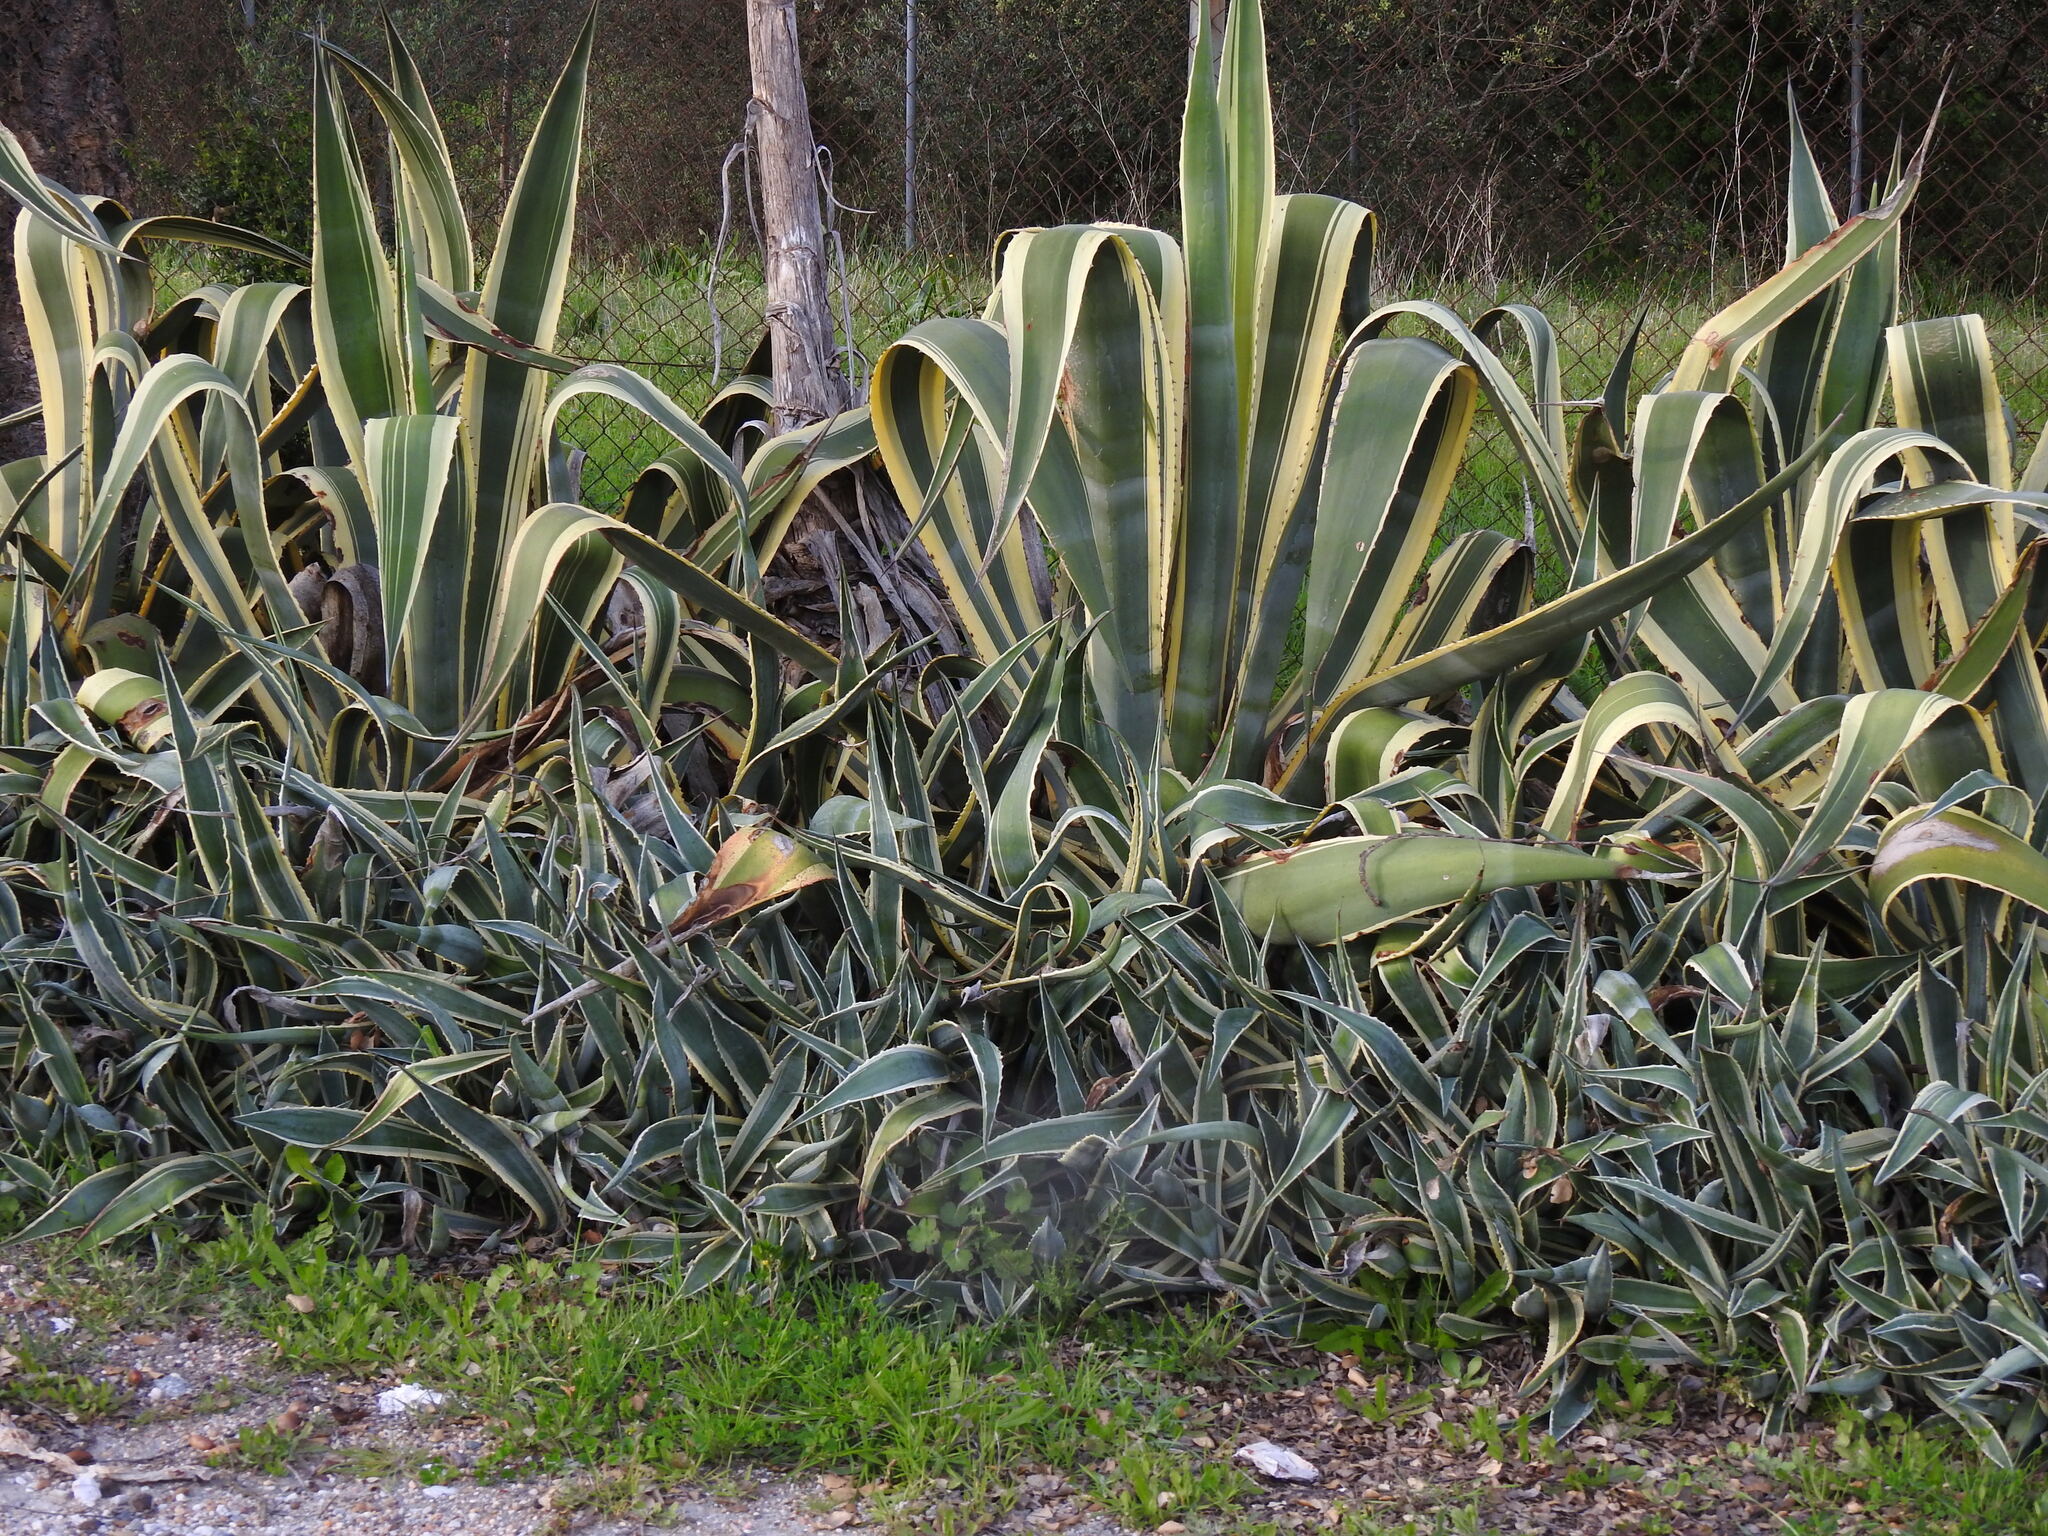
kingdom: Plantae
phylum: Tracheophyta
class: Liliopsida
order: Asparagales
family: Asparagaceae
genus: Agave
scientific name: Agave americana
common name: Centuryplant
